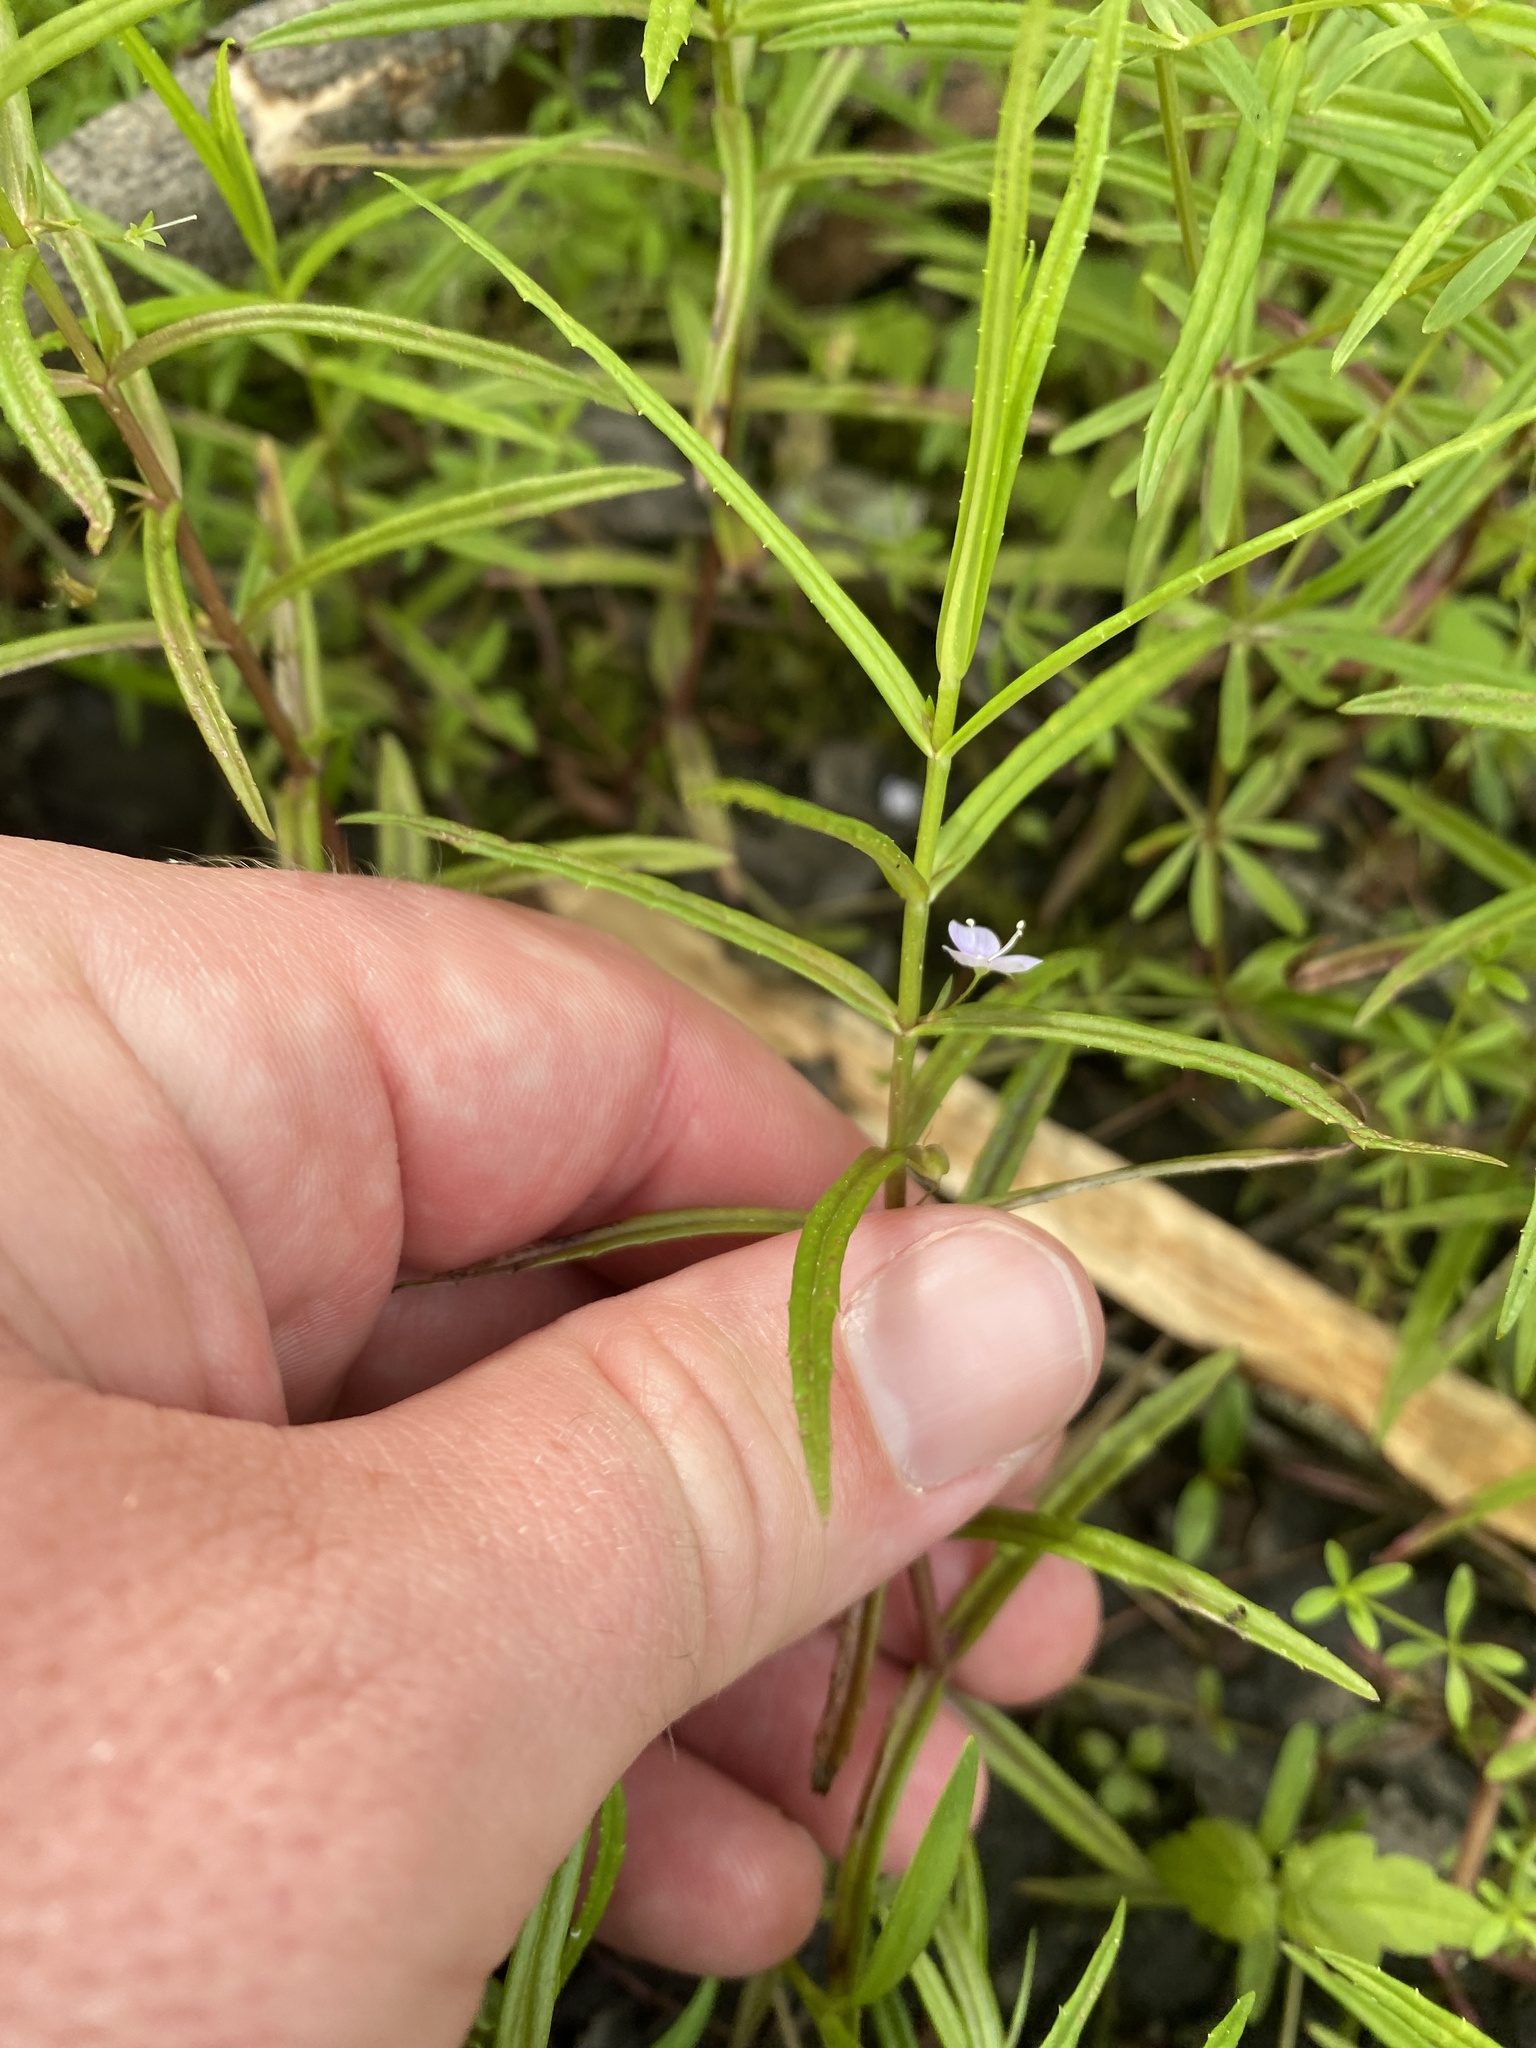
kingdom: Plantae
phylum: Tracheophyta
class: Magnoliopsida
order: Lamiales
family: Plantaginaceae
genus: Veronica
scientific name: Veronica scutellata
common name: Marsh speedwell
